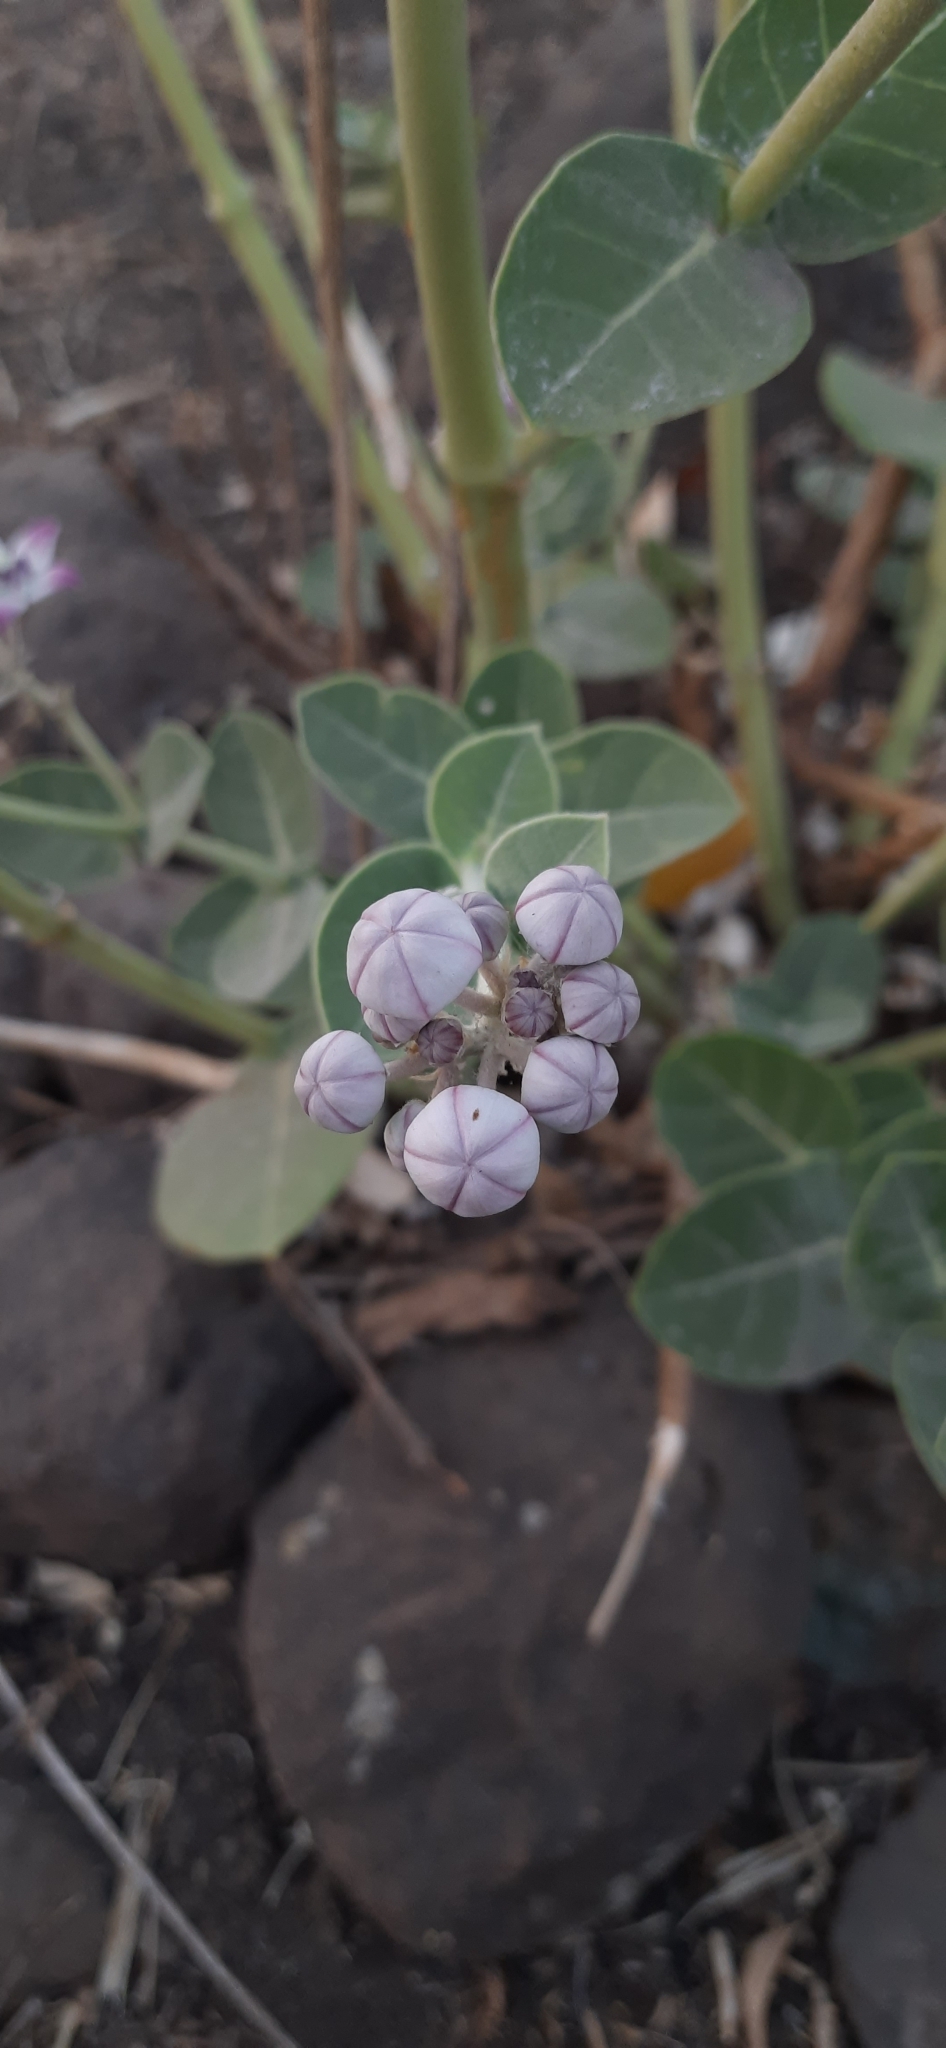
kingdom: Plantae
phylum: Tracheophyta
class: Magnoliopsida
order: Gentianales
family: Apocynaceae
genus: Calotropis
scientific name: Calotropis procera
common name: Roostertree
